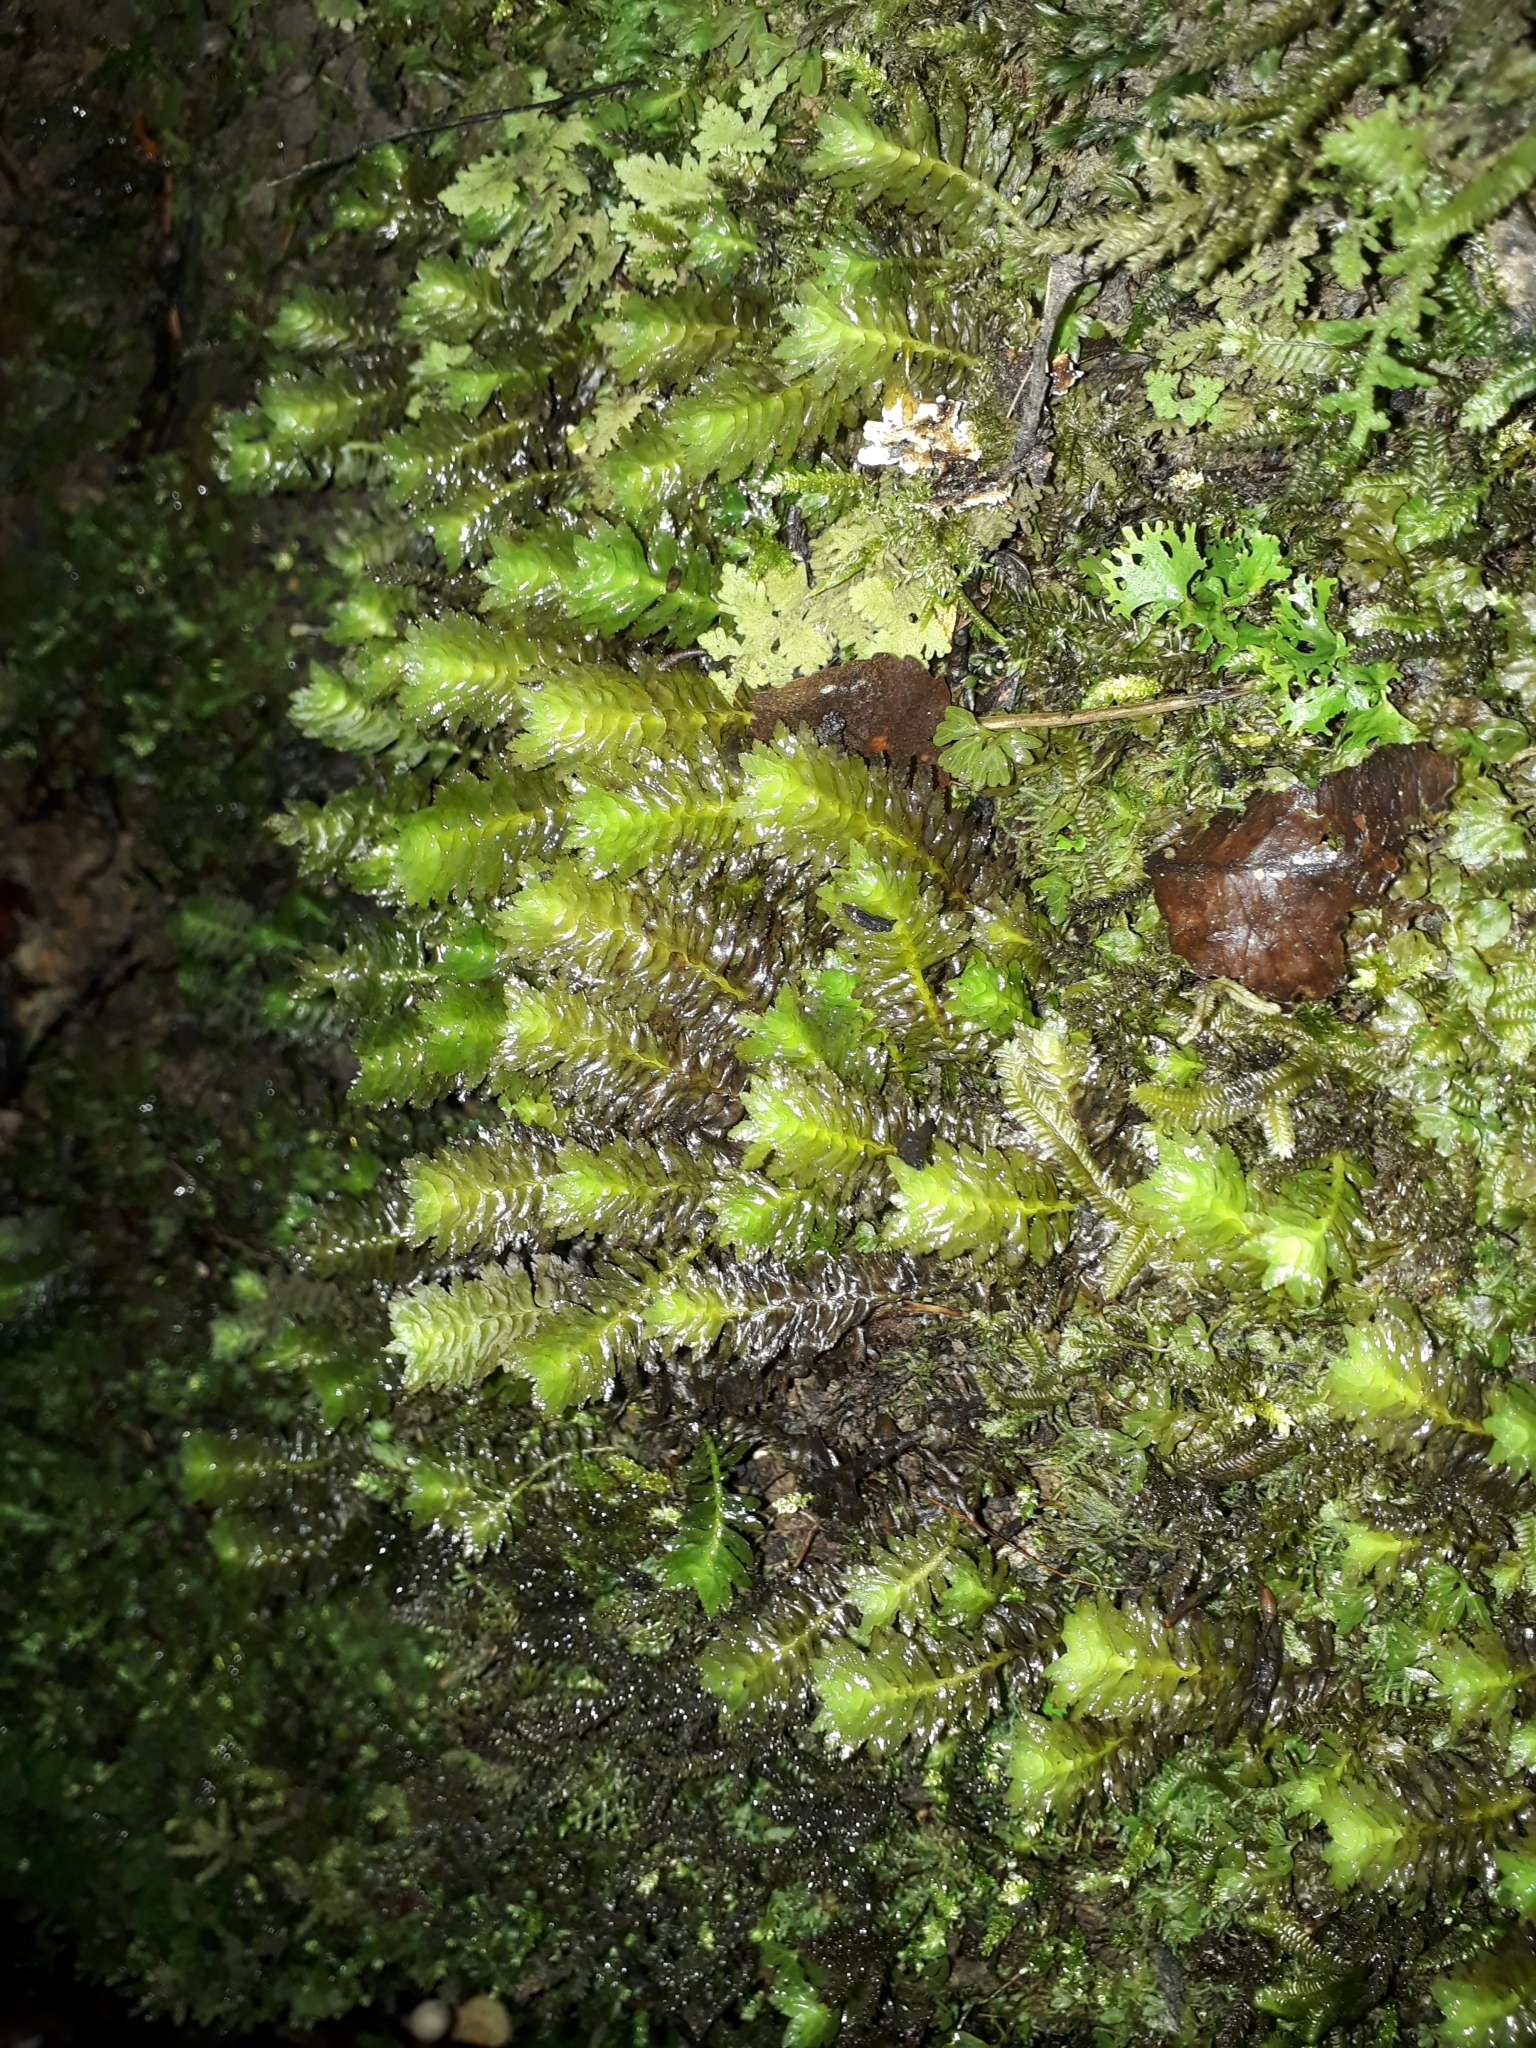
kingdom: Plantae
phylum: Marchantiophyta
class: Jungermanniopsida
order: Jungermanniales
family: Schistochilaceae
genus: Schistochila
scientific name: Schistochila appendiculata
